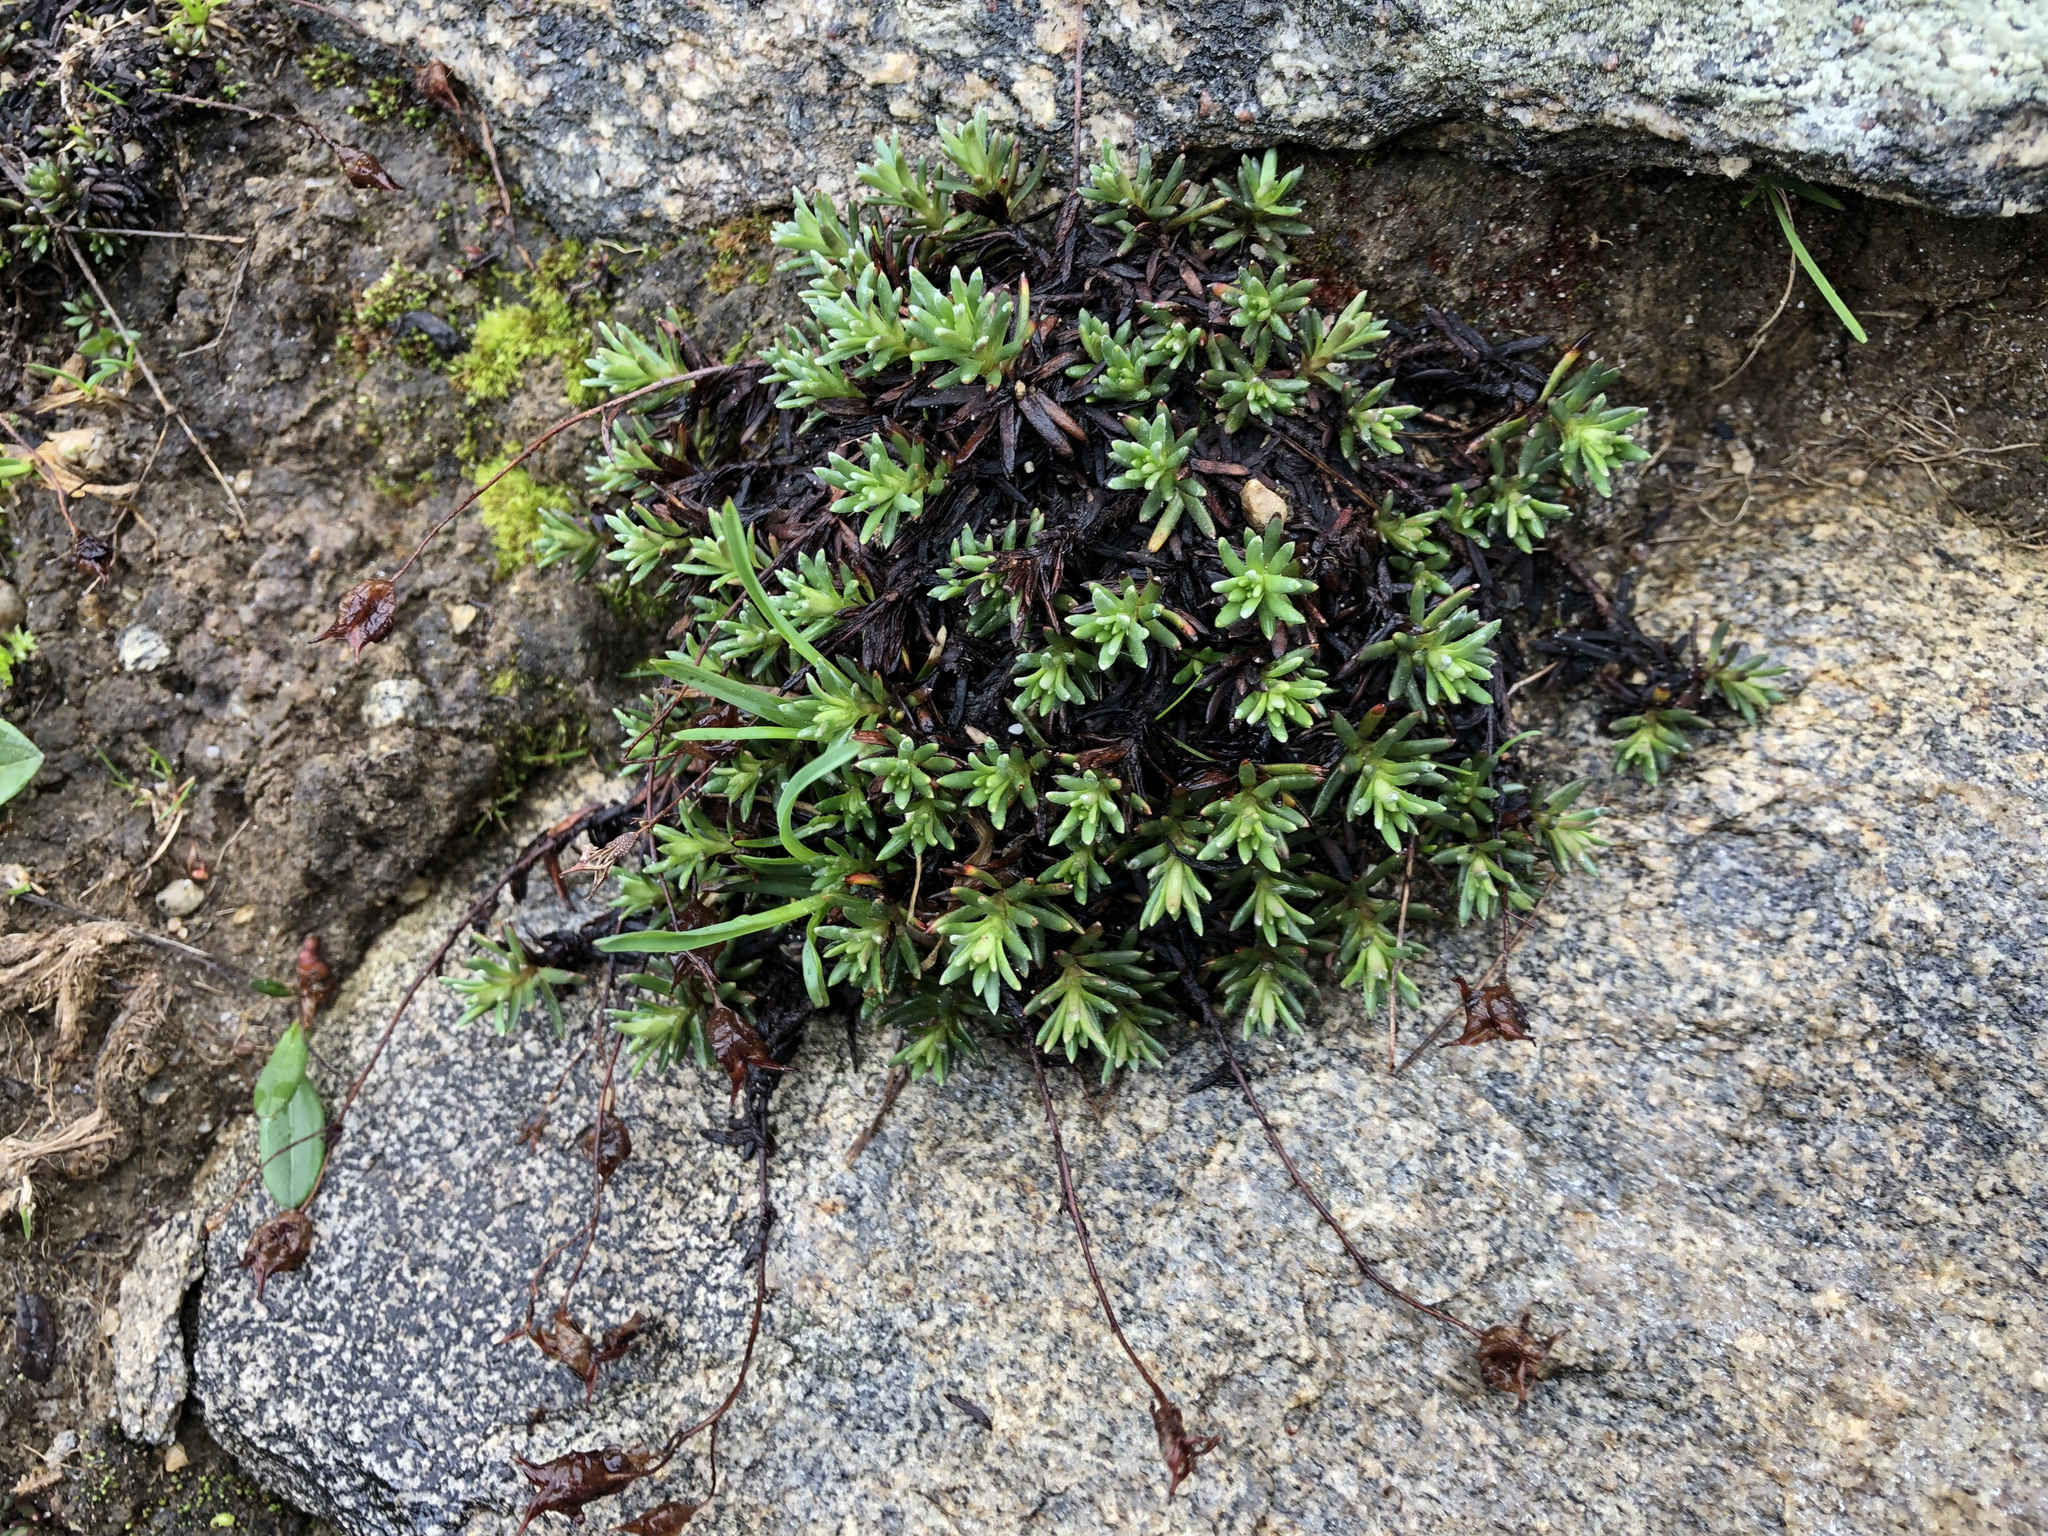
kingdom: Plantae
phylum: Tracheophyta
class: Magnoliopsida
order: Saxifragales
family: Saxifragaceae
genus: Saxifraga
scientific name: Saxifraga aizoides
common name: Yellow mountain saxifrage
